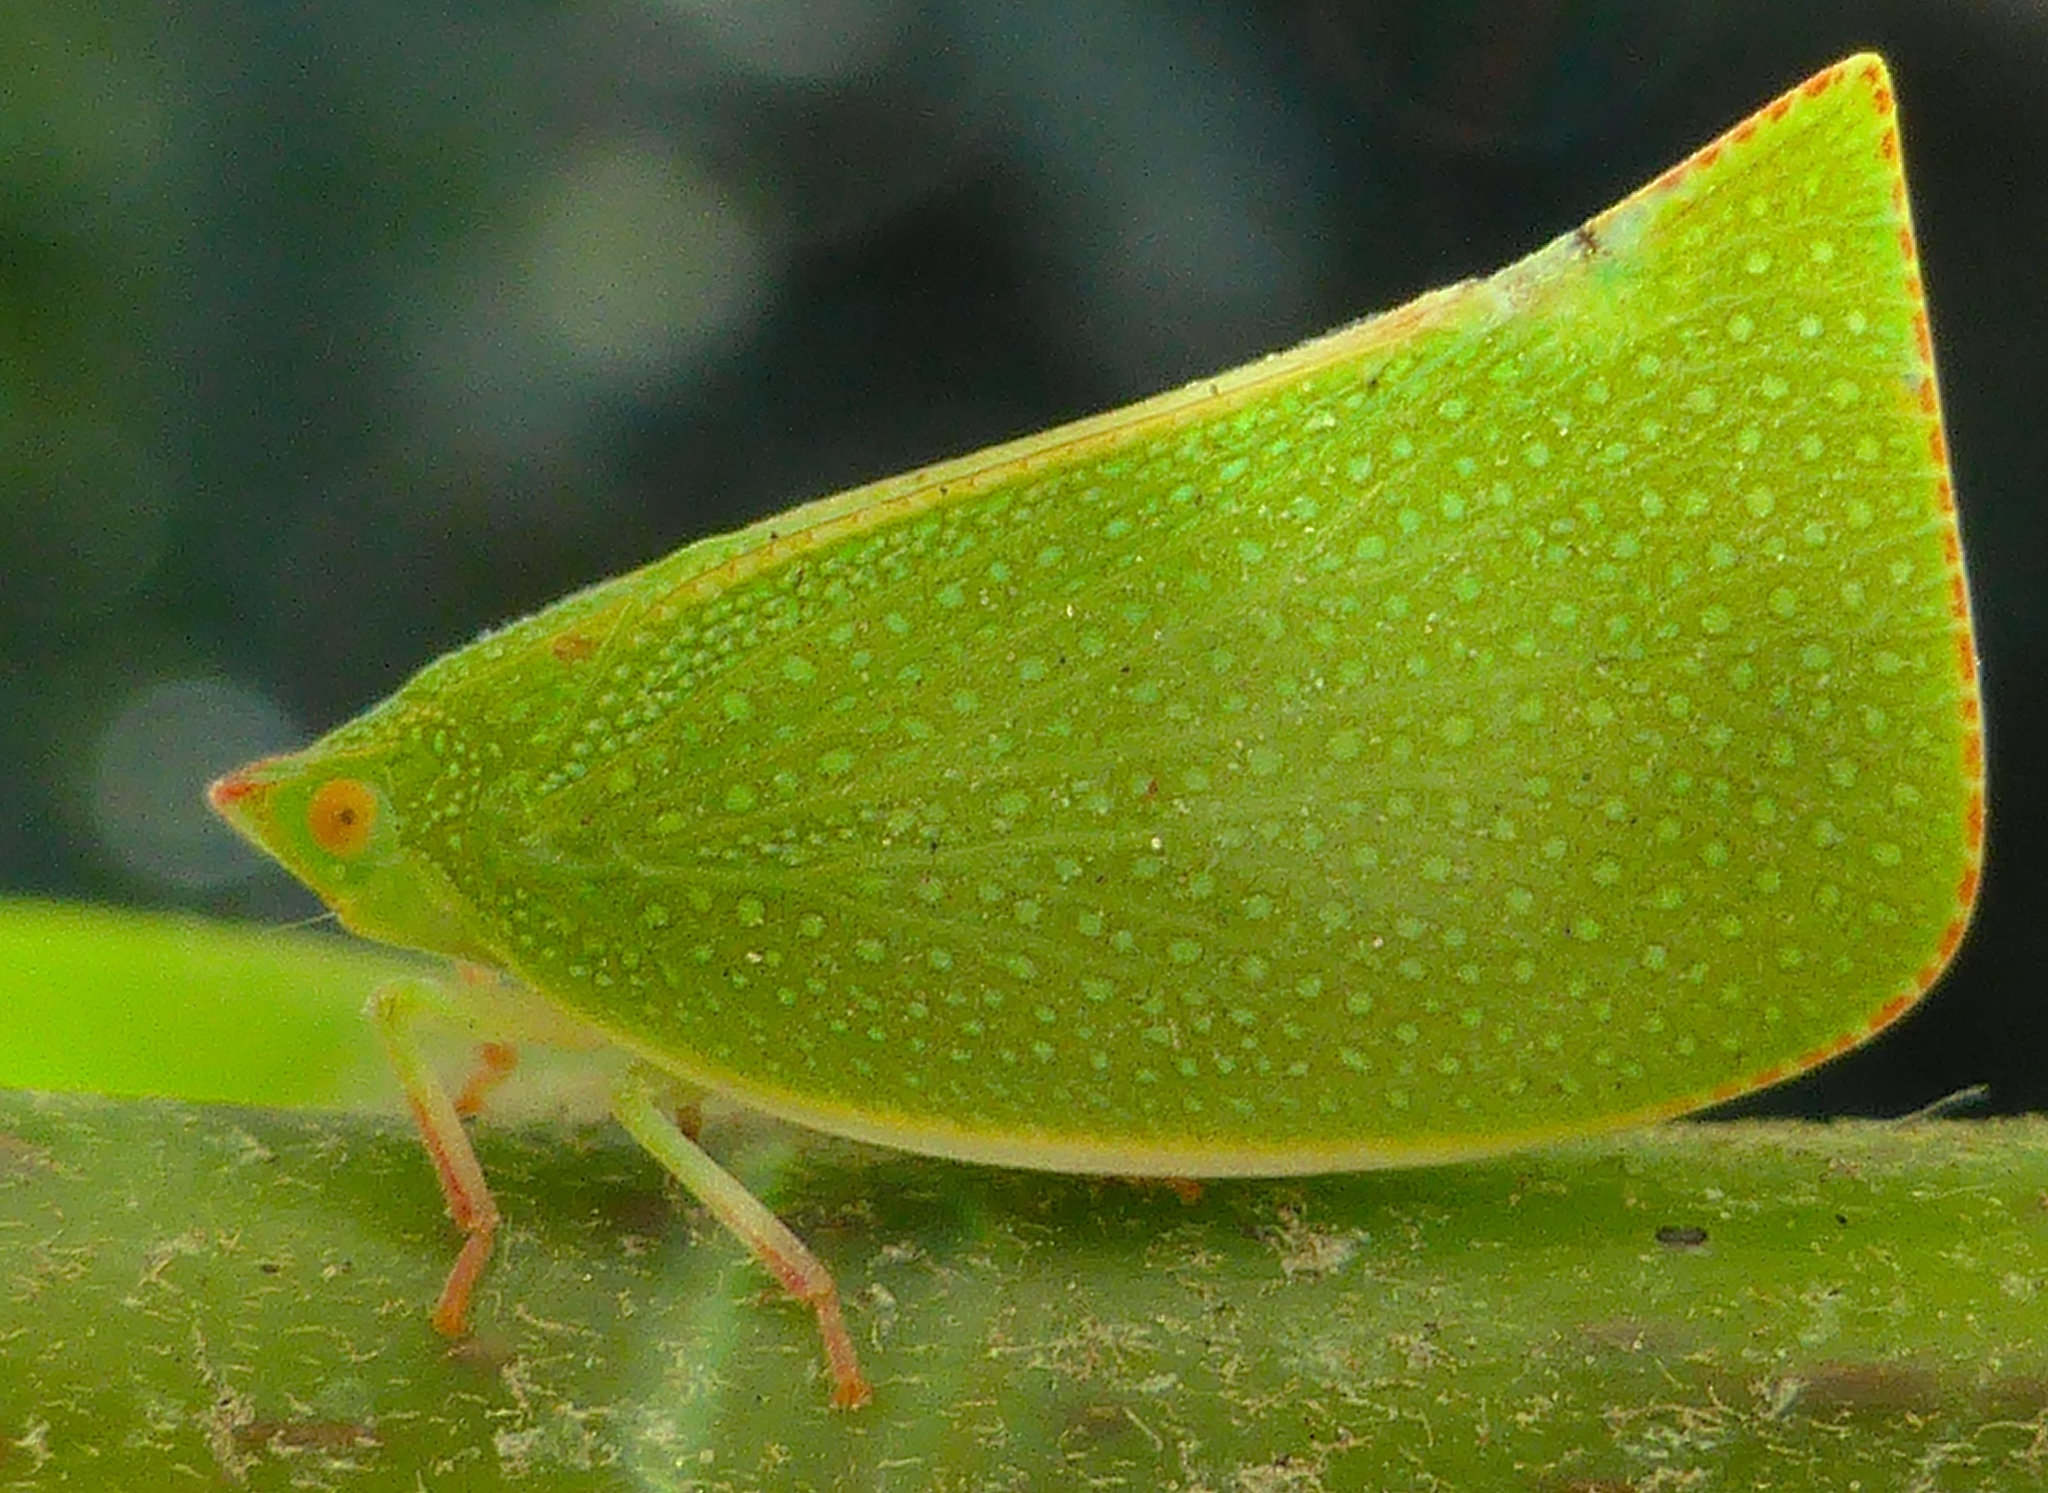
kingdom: Animalia
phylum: Arthropoda
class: Insecta
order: Hemiptera
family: Flatidae
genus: Siphanta
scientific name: Siphanta acuta
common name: Torpedo bug
